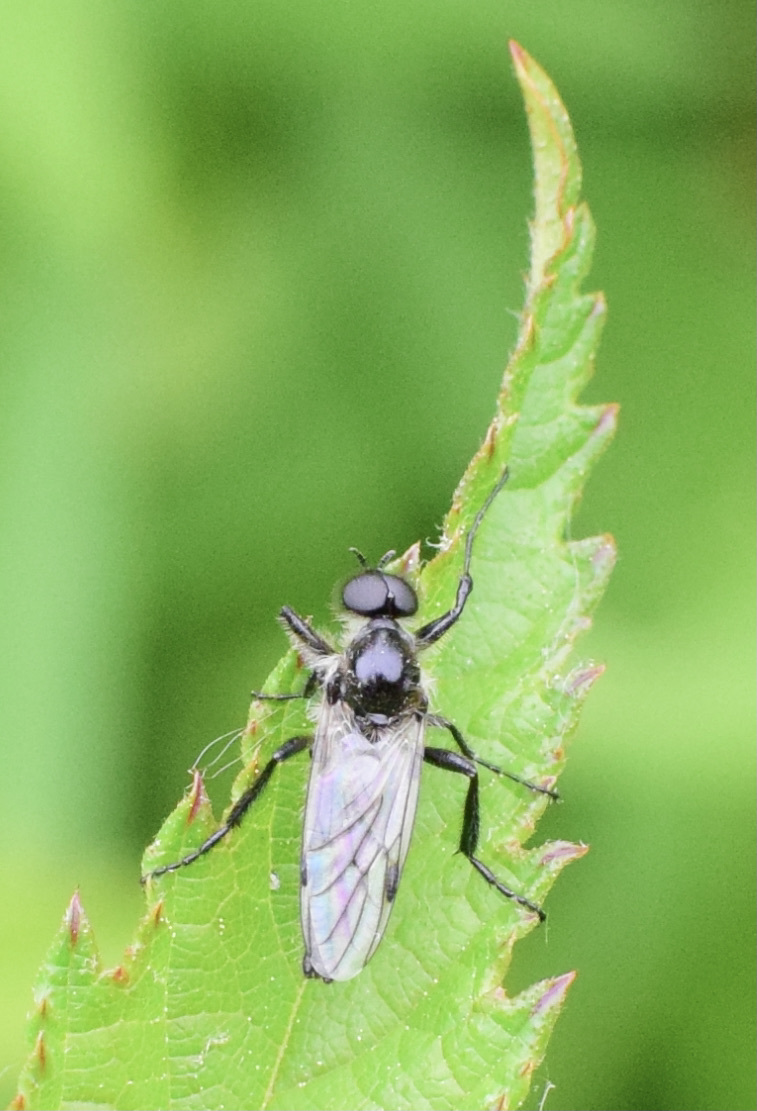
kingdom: Animalia
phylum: Arthropoda
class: Insecta
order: Diptera
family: Bibionidae
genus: Bibio
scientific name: Bibio albipennis
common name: White-winged march fly
